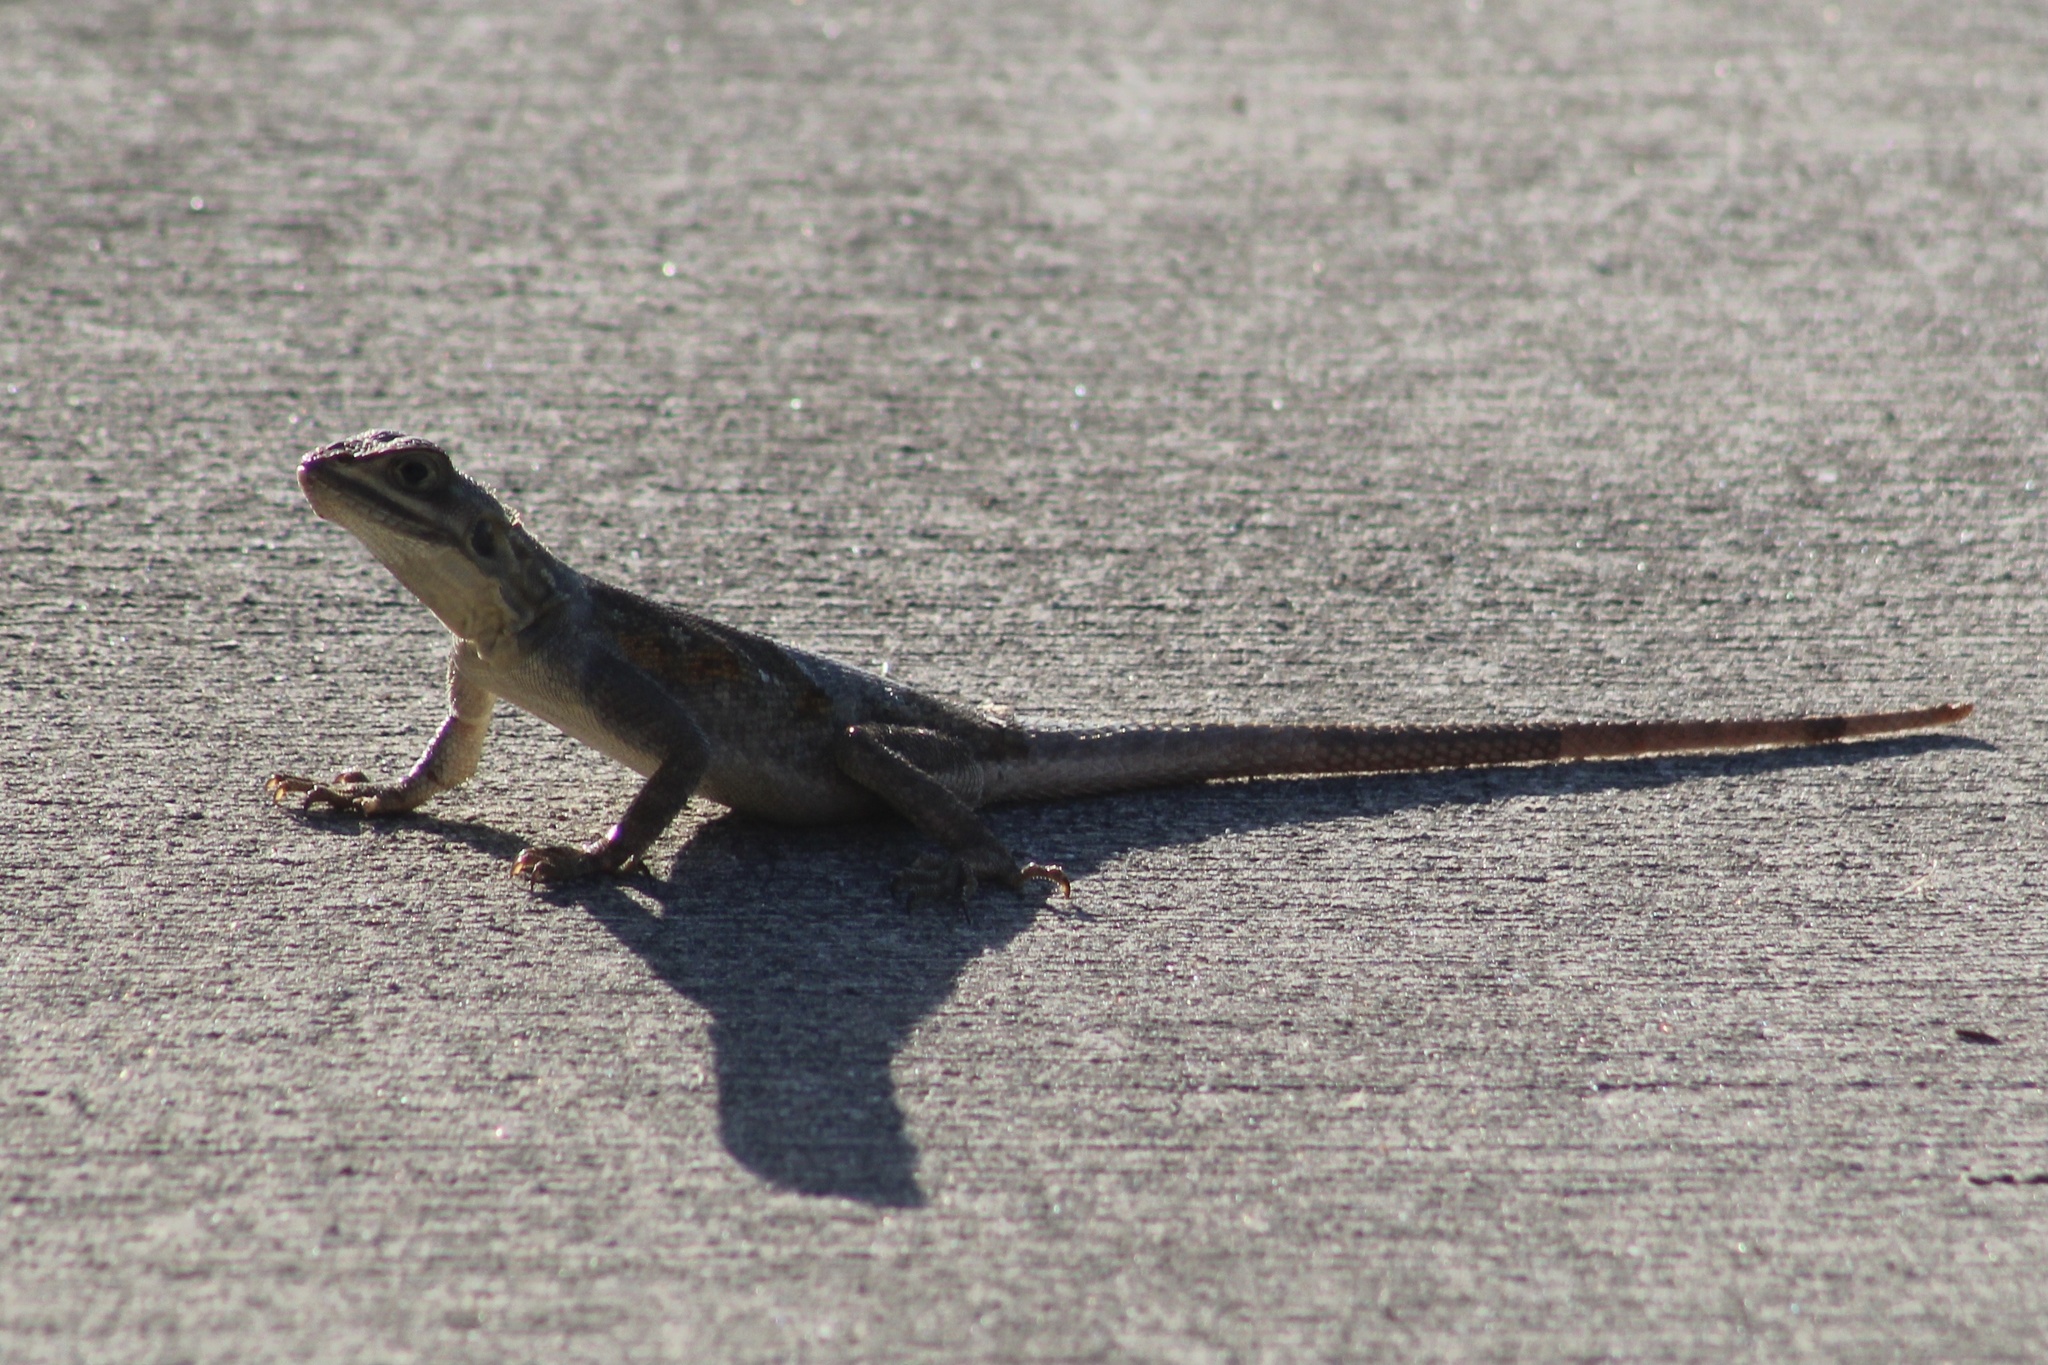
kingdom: Animalia
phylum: Chordata
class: Squamata
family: Agamidae
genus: Agama
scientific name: Agama picticauda
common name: Red-headed agama
